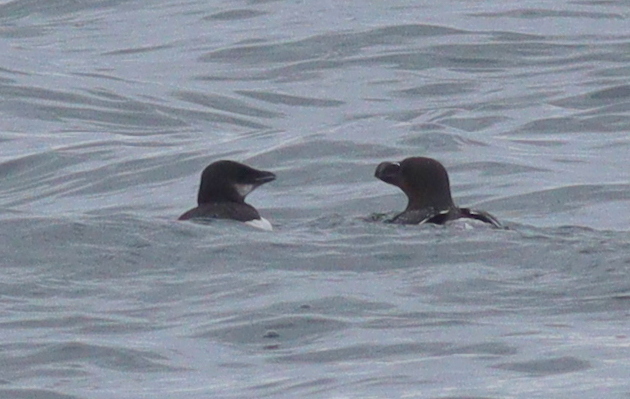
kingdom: Animalia
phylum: Chordata
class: Aves
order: Charadriiformes
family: Alcidae
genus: Alca
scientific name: Alca torda
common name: Razorbill
